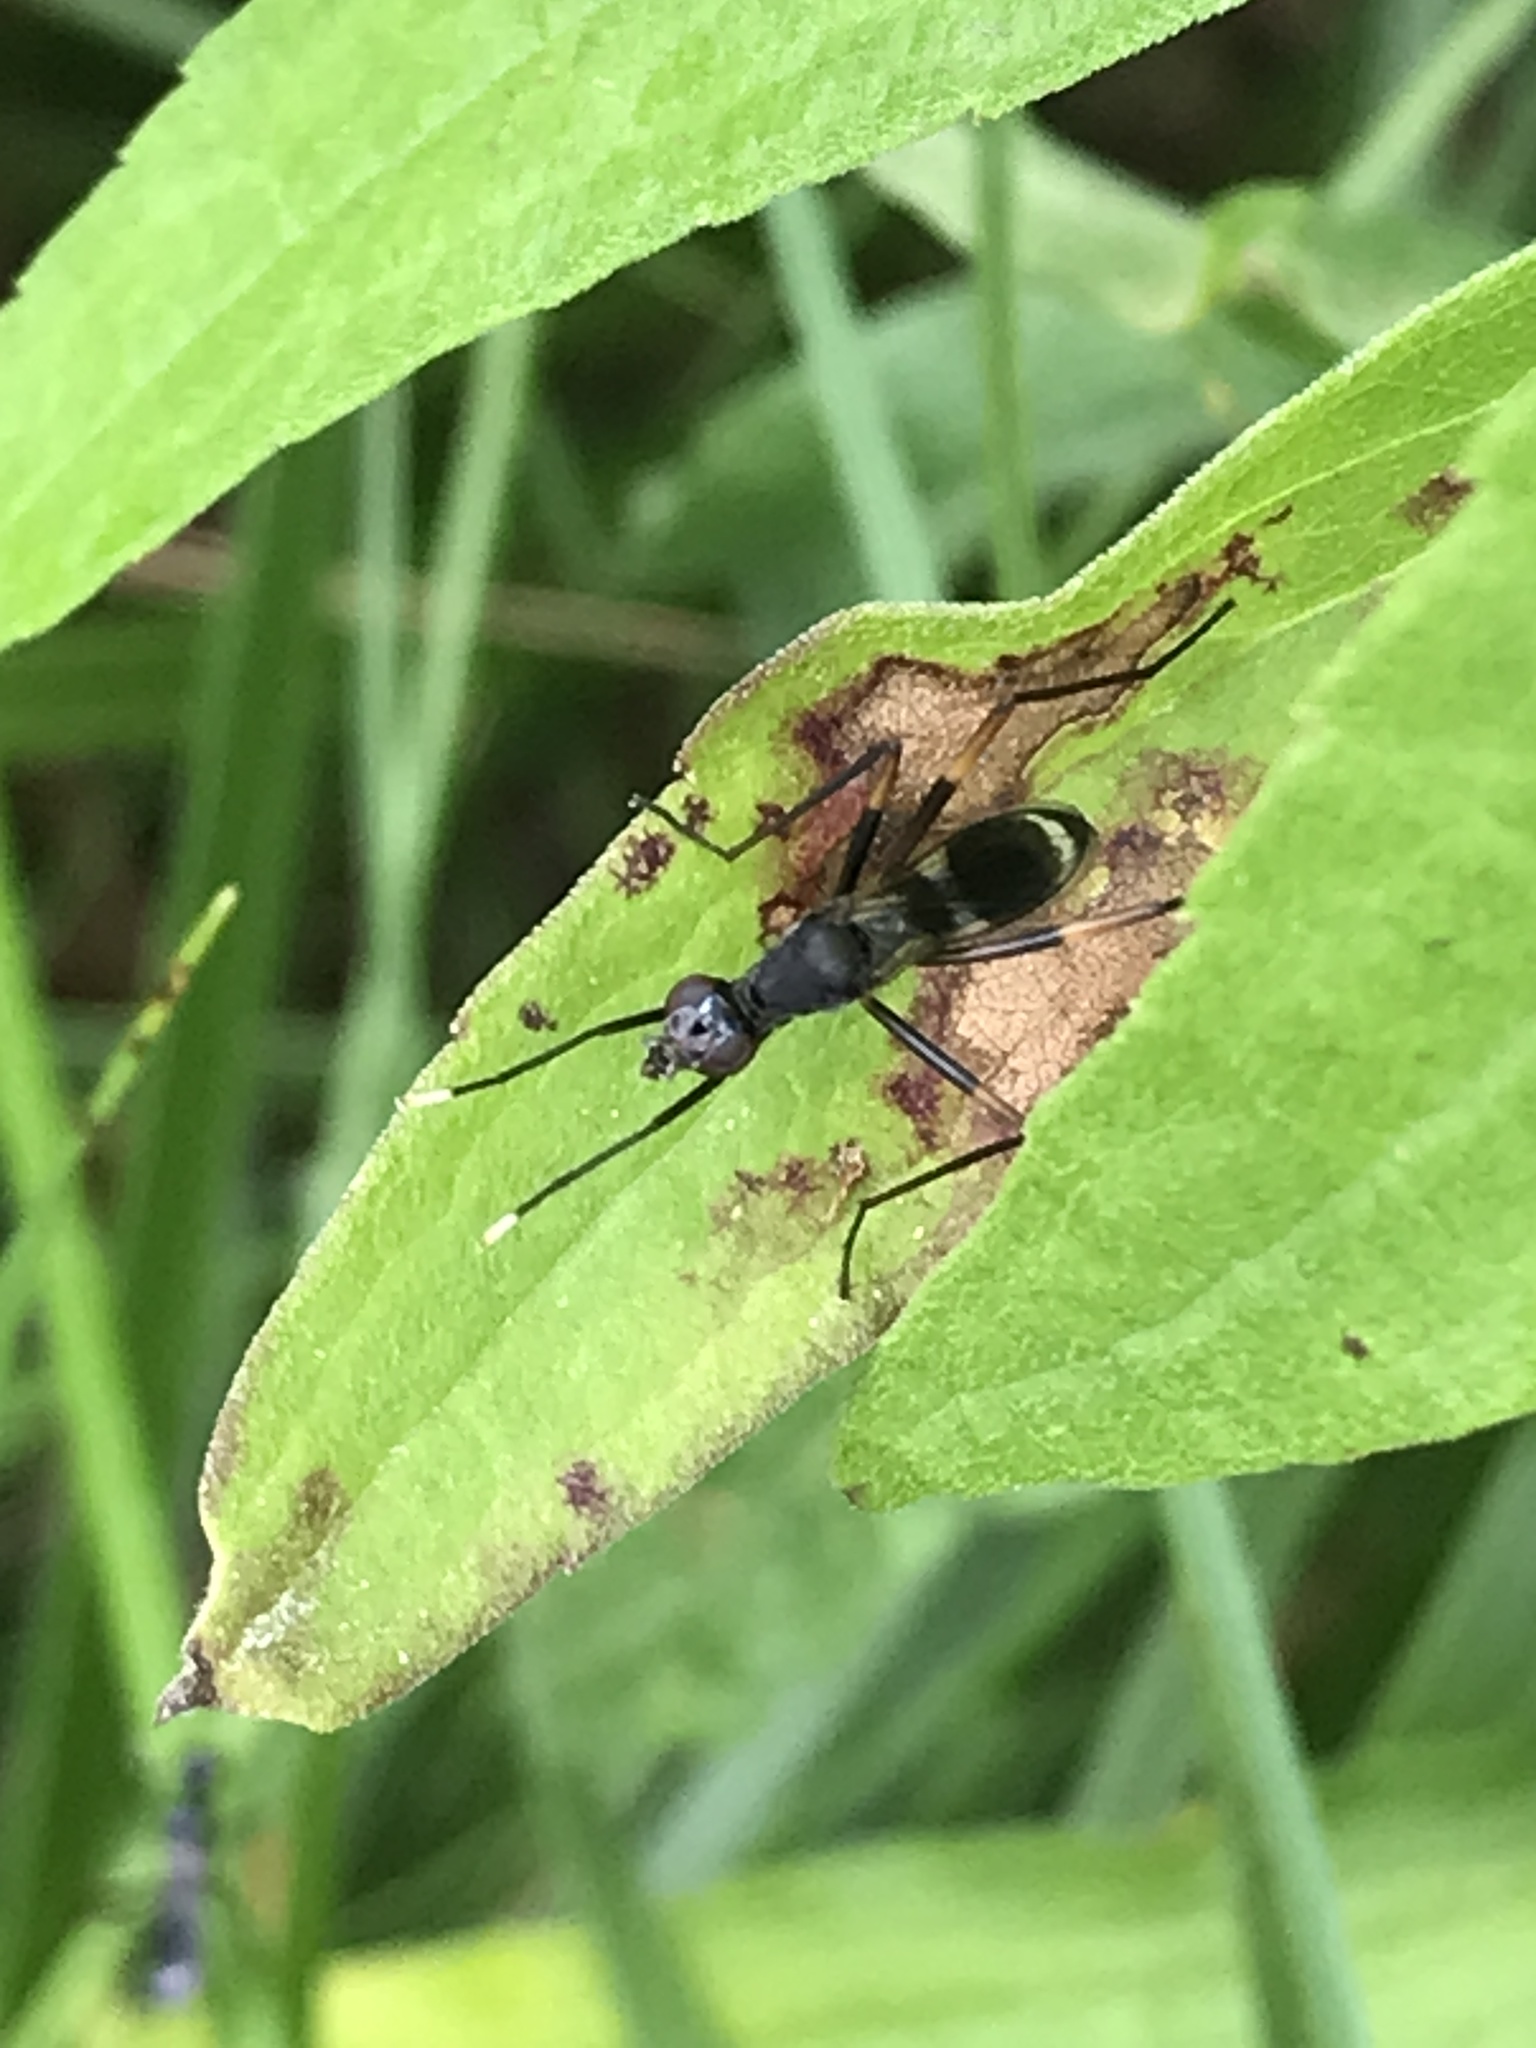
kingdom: Animalia
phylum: Arthropoda
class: Insecta
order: Diptera
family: Micropezidae
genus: Taeniaptera
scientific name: Taeniaptera trivittata
